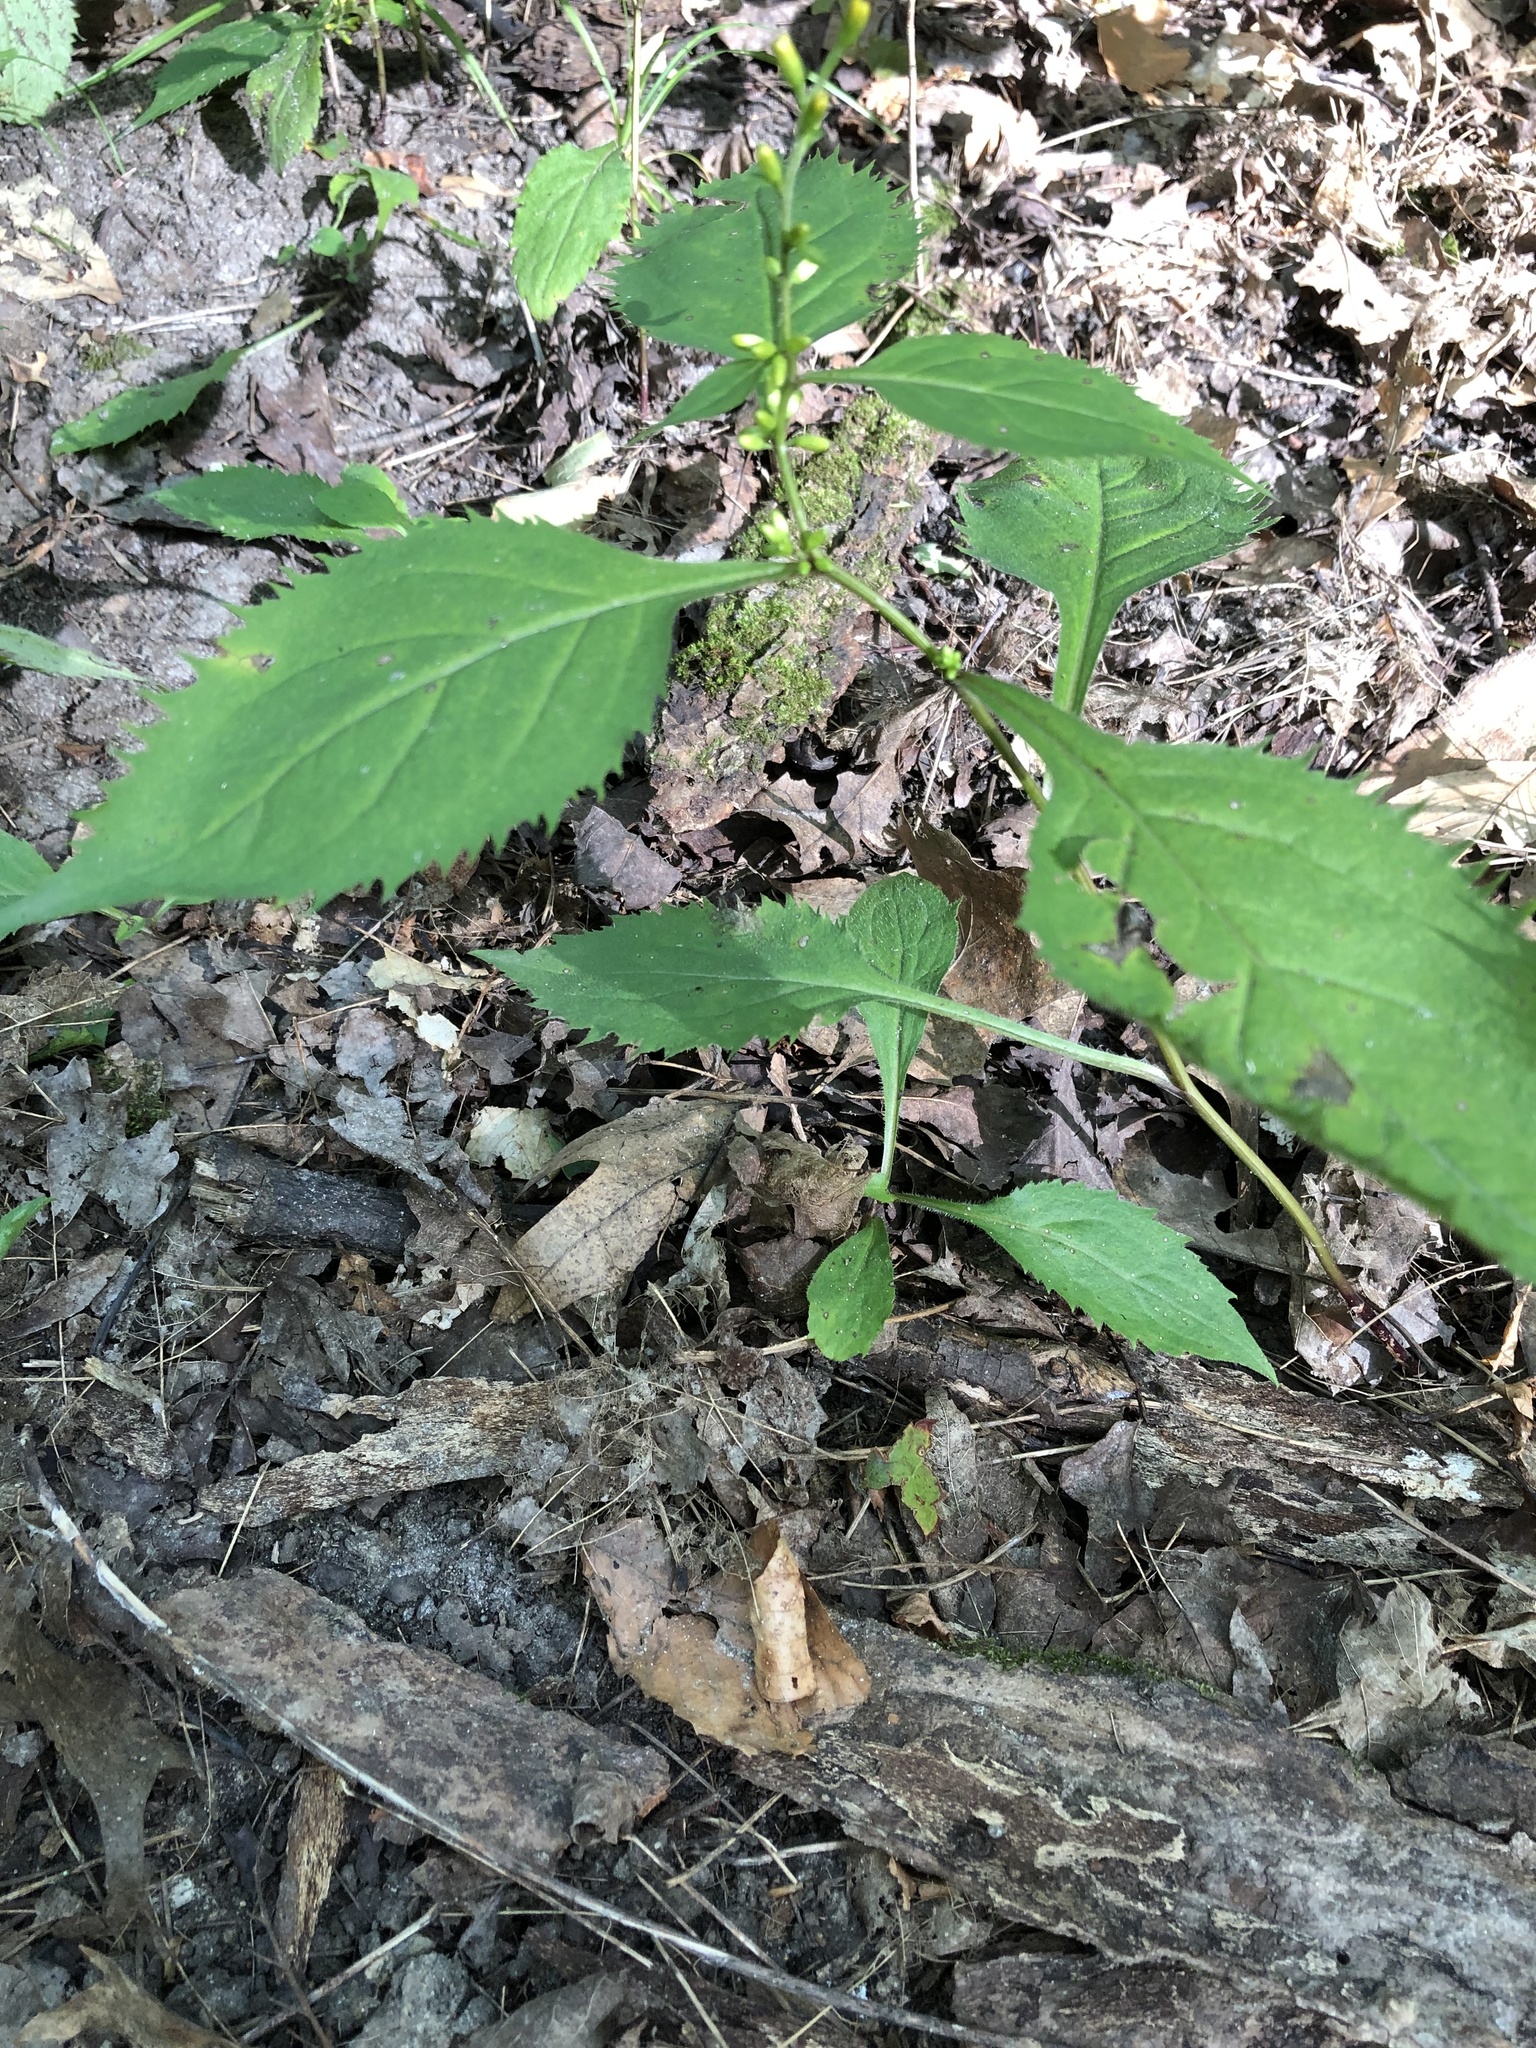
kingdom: Plantae
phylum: Tracheophyta
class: Magnoliopsida
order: Asterales
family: Asteraceae
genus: Solidago
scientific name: Solidago flexicaulis
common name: Zig-zag goldenrod
